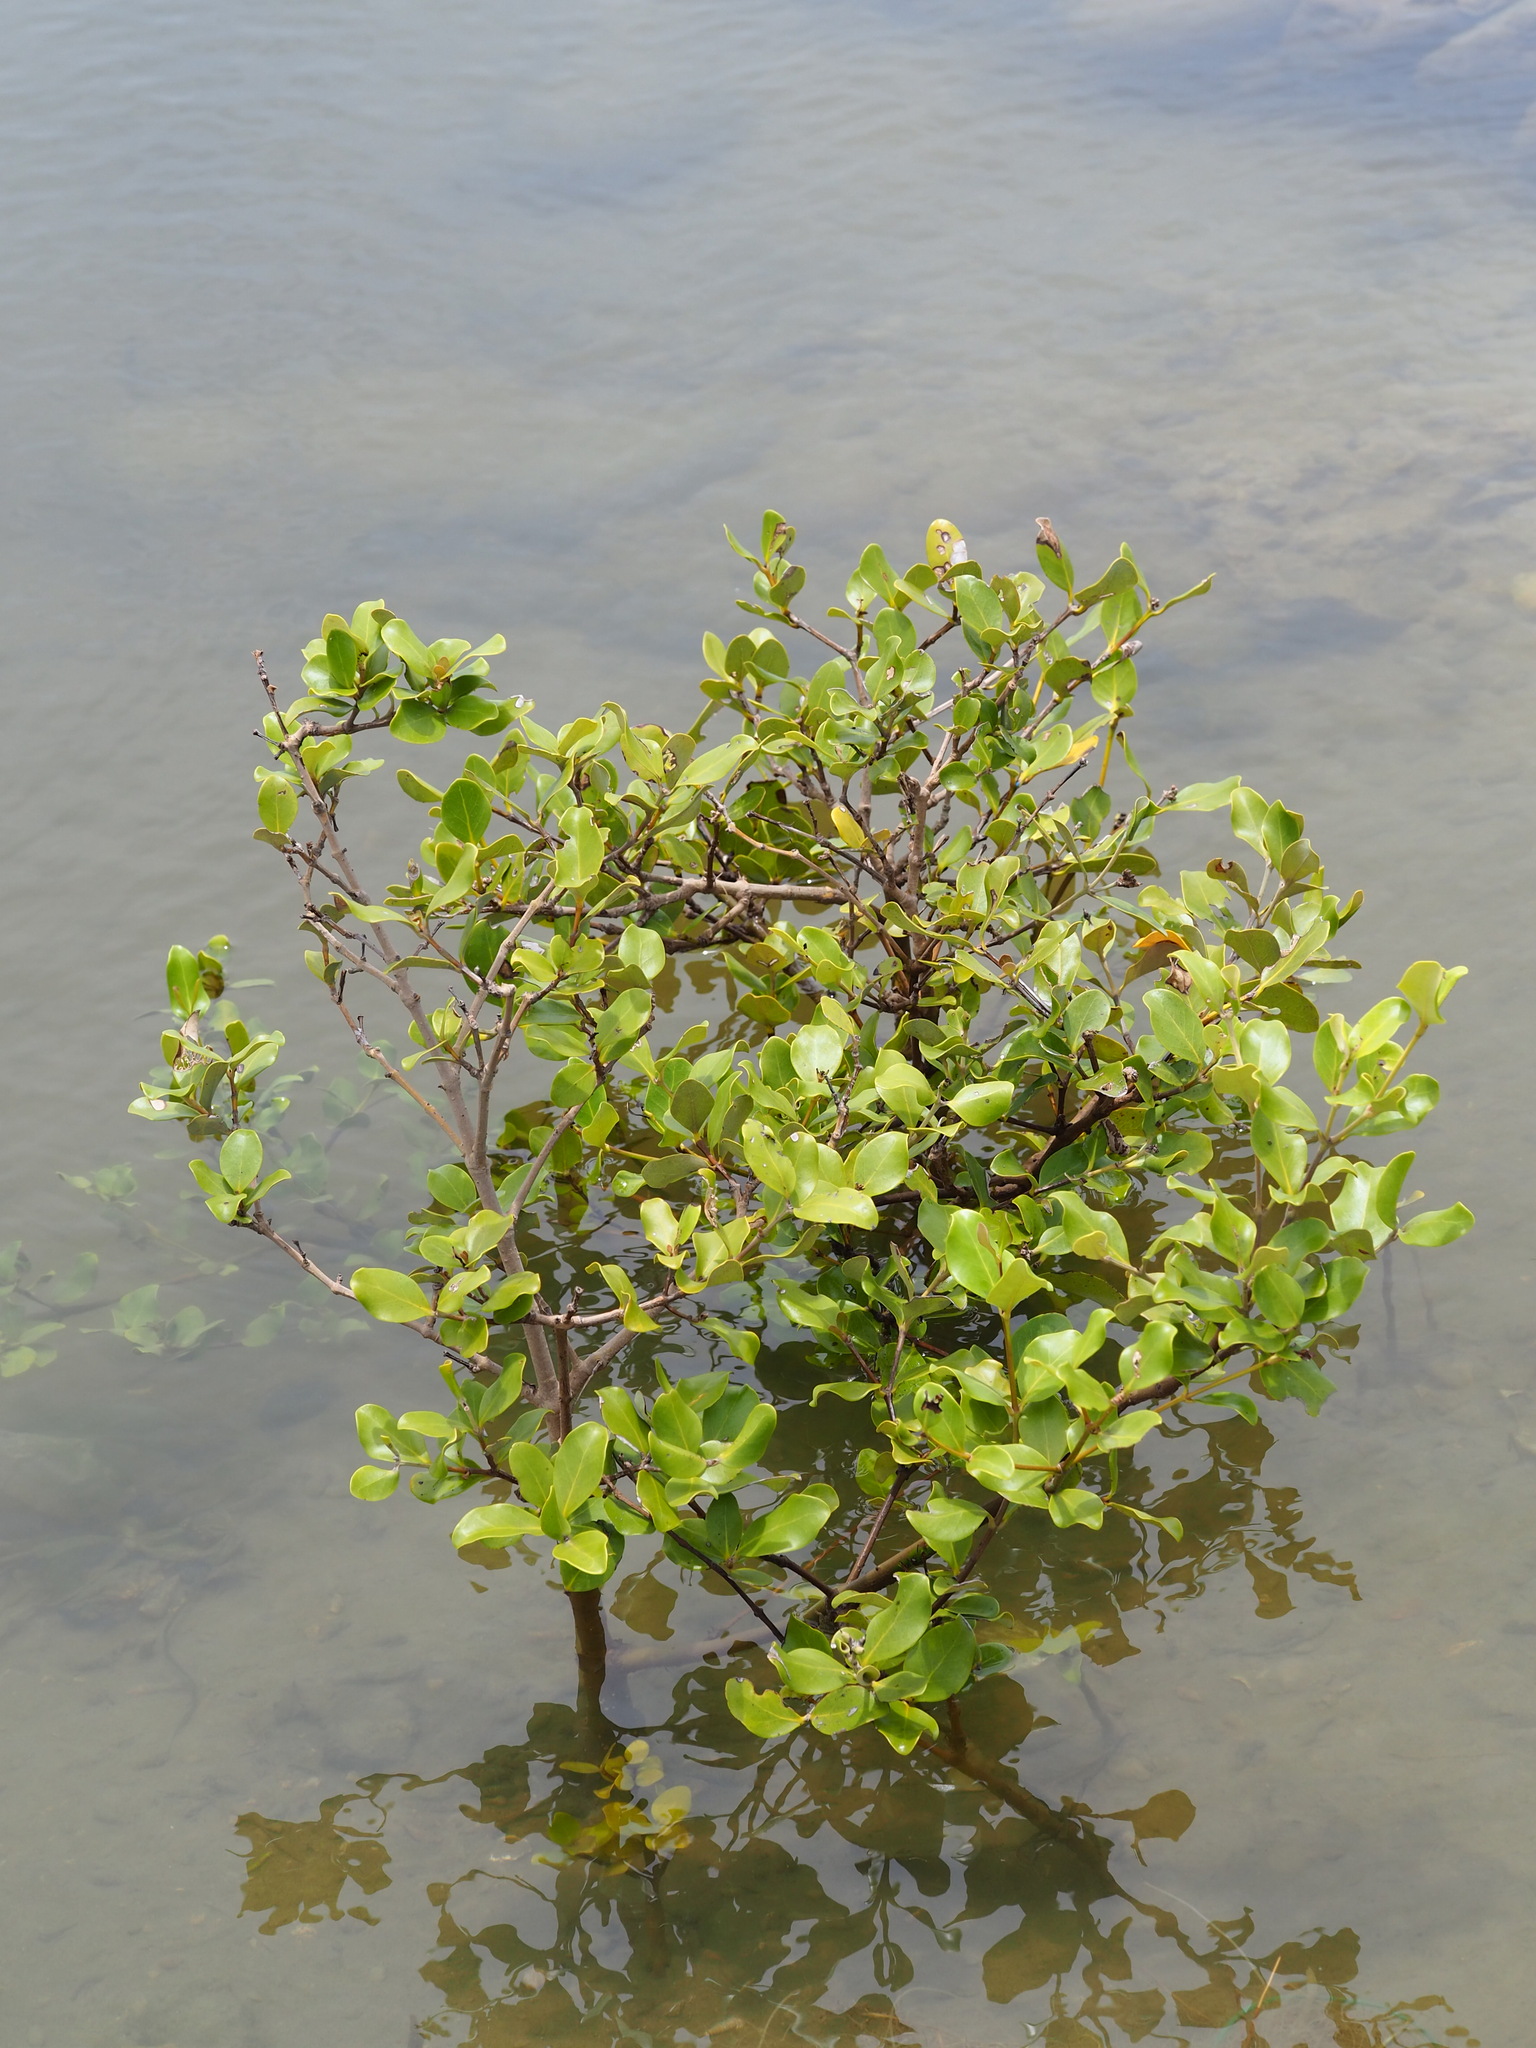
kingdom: Plantae
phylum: Tracheophyta
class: Magnoliopsida
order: Lamiales
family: Acanthaceae
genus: Avicennia
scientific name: Avicennia marina
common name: Gray mangrove
